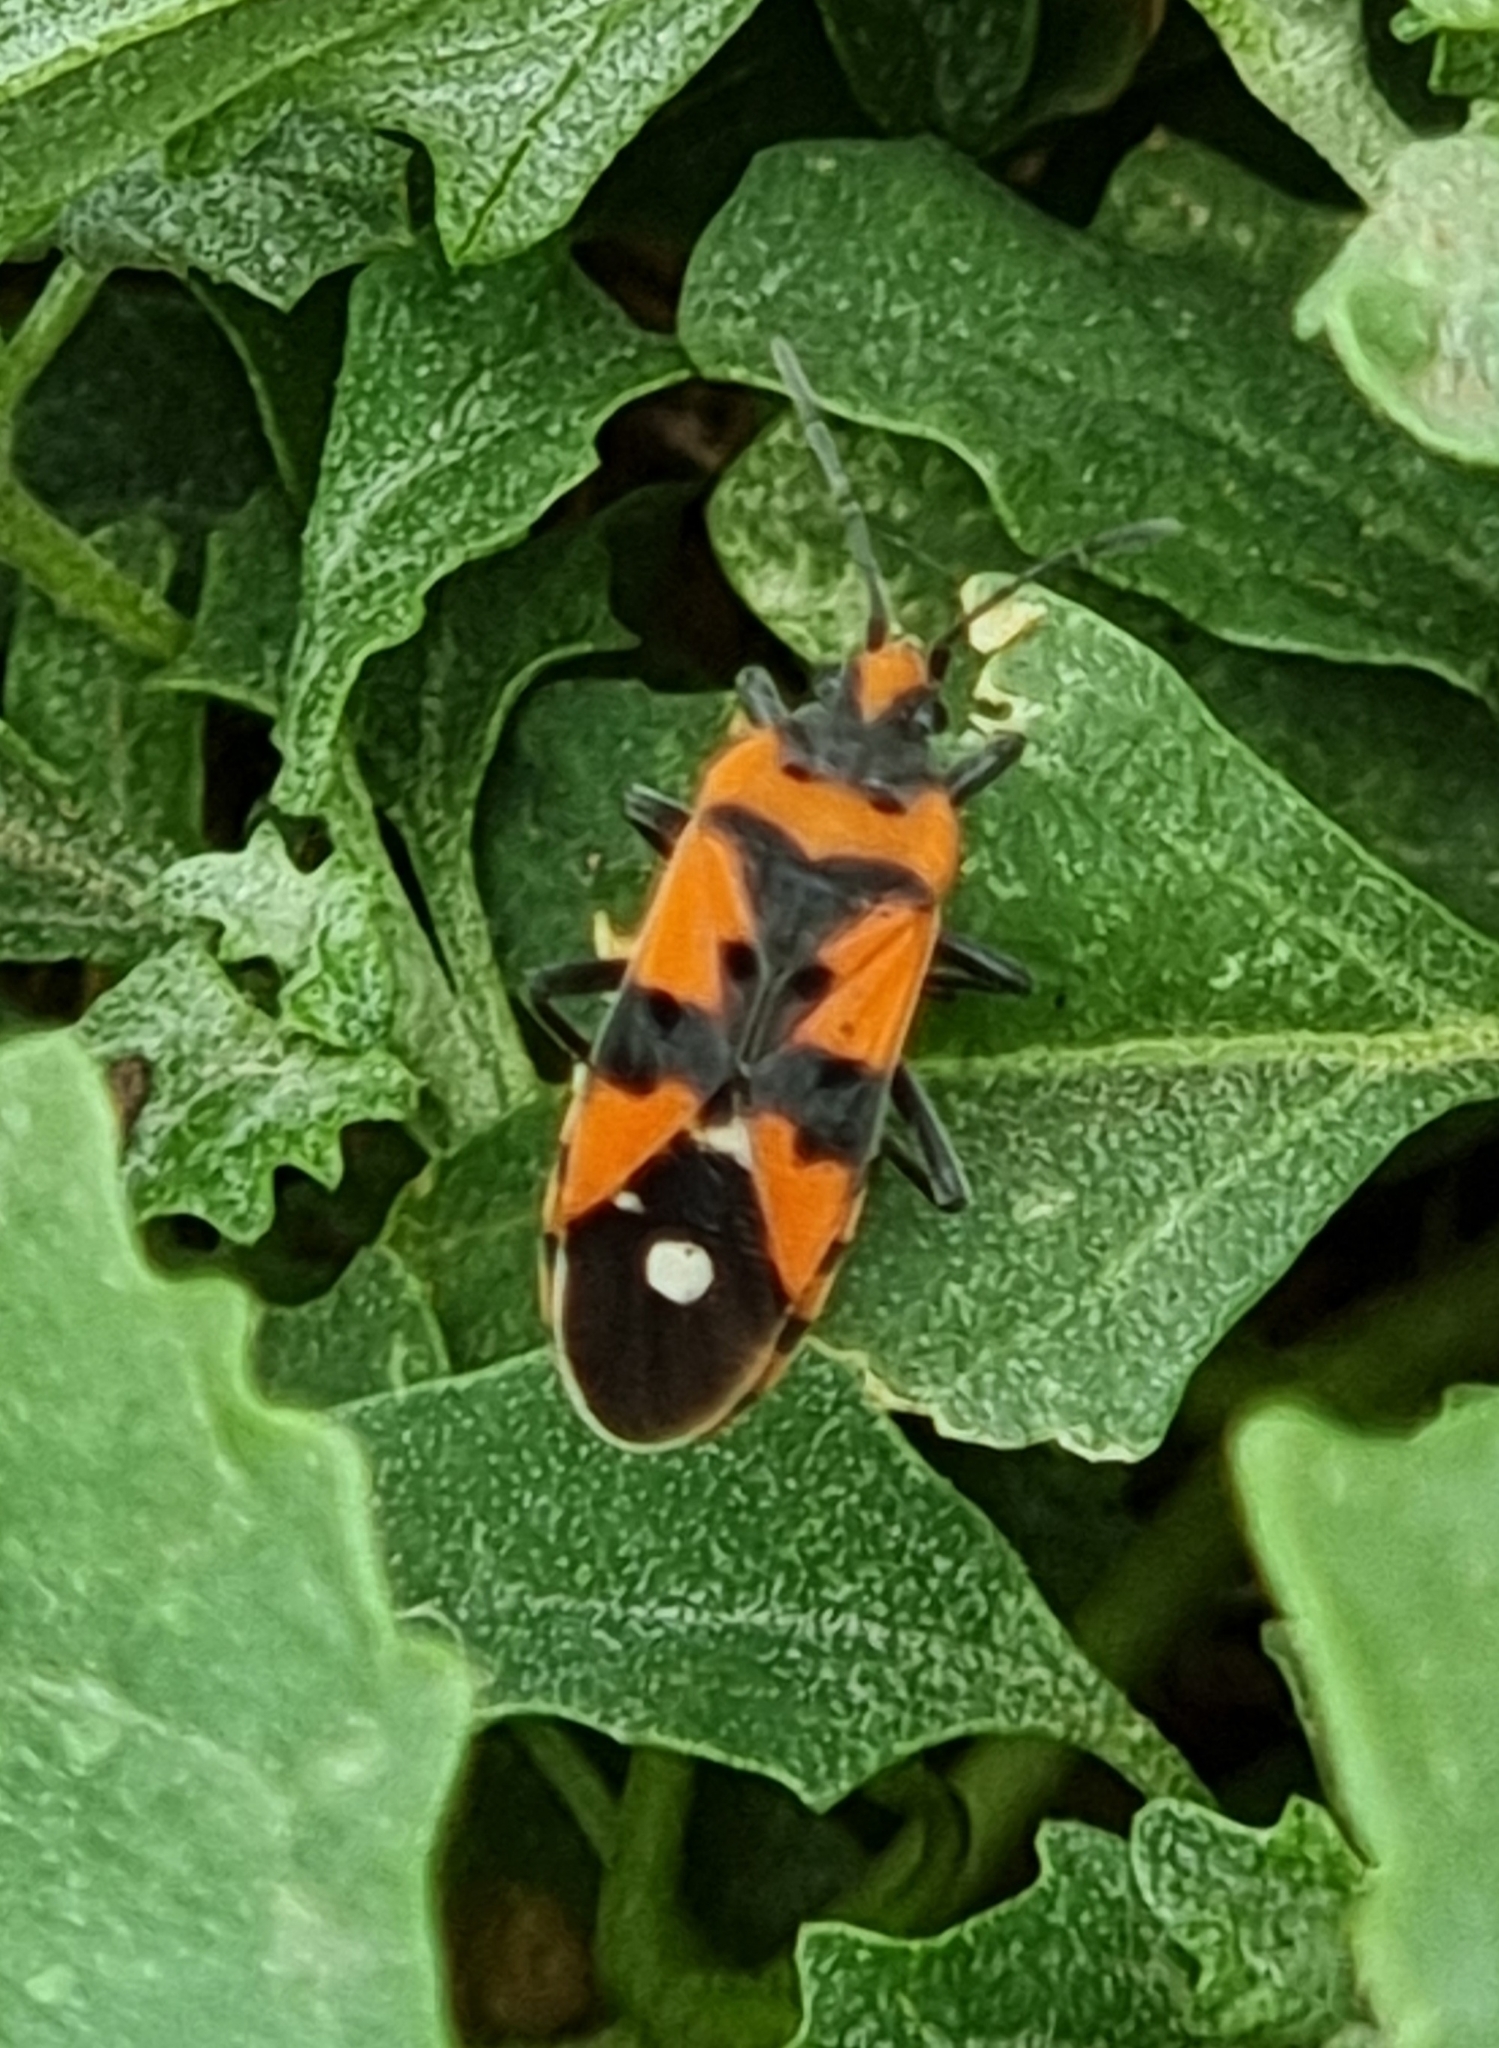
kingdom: Animalia
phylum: Arthropoda
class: Insecta
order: Hemiptera
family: Lygaeidae
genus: Lygaeus
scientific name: Lygaeus equestris
